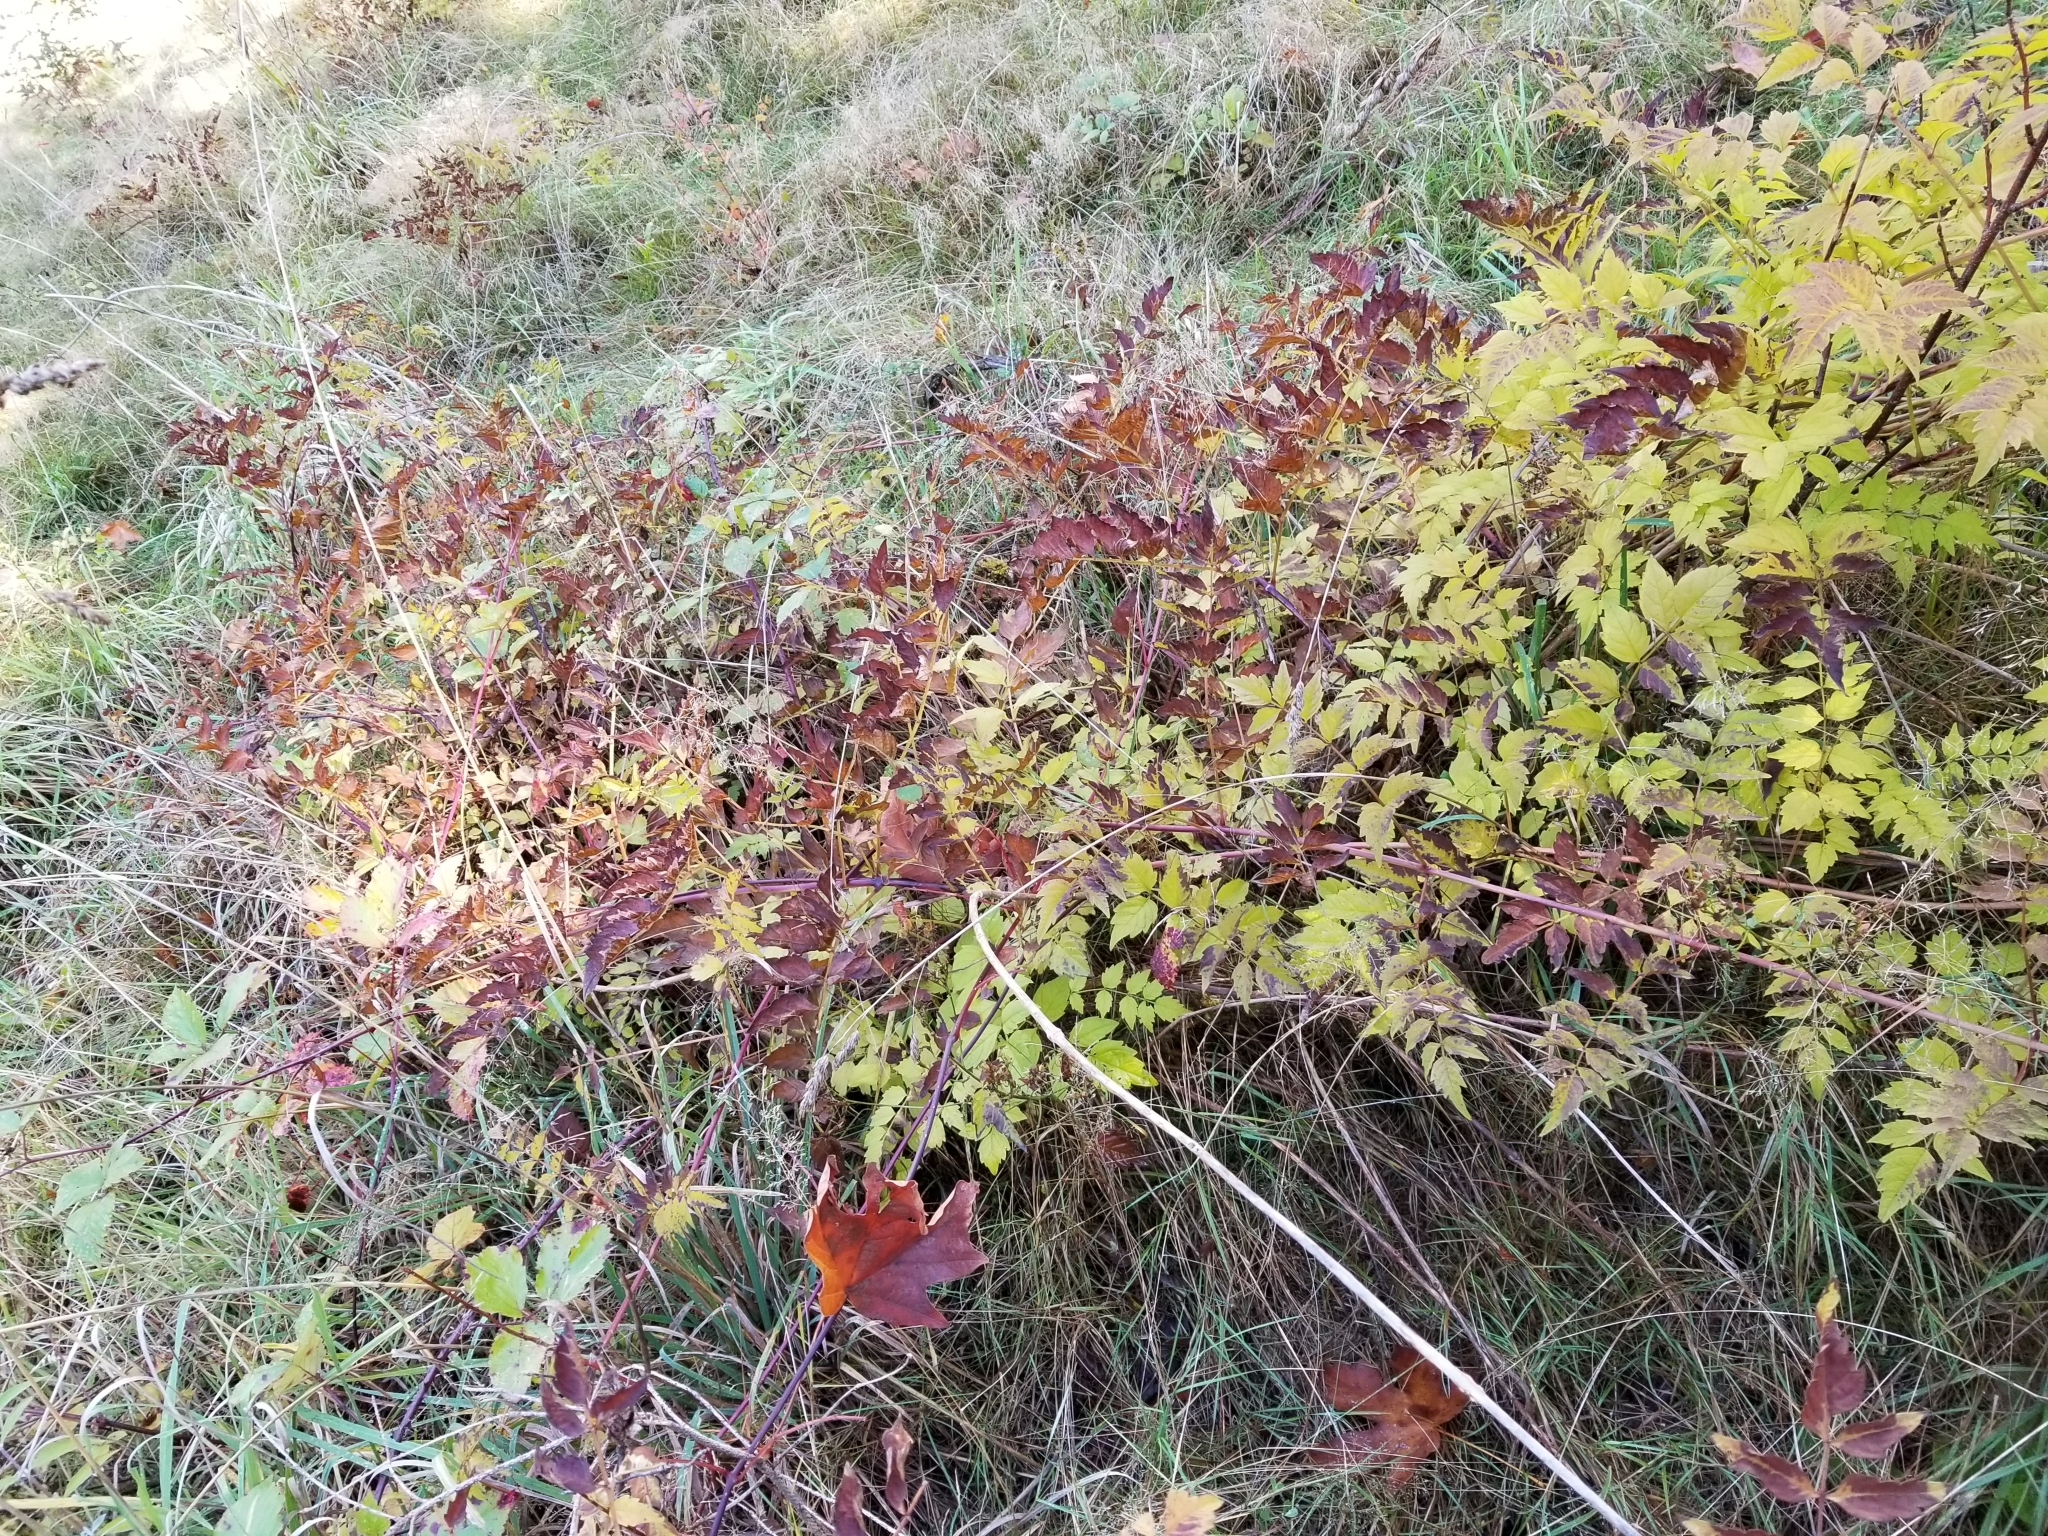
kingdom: Plantae
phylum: Tracheophyta
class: Magnoliopsida
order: Lamiales
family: Bignoniaceae
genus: Campsis
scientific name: Campsis radicans
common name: Trumpet-creeper
